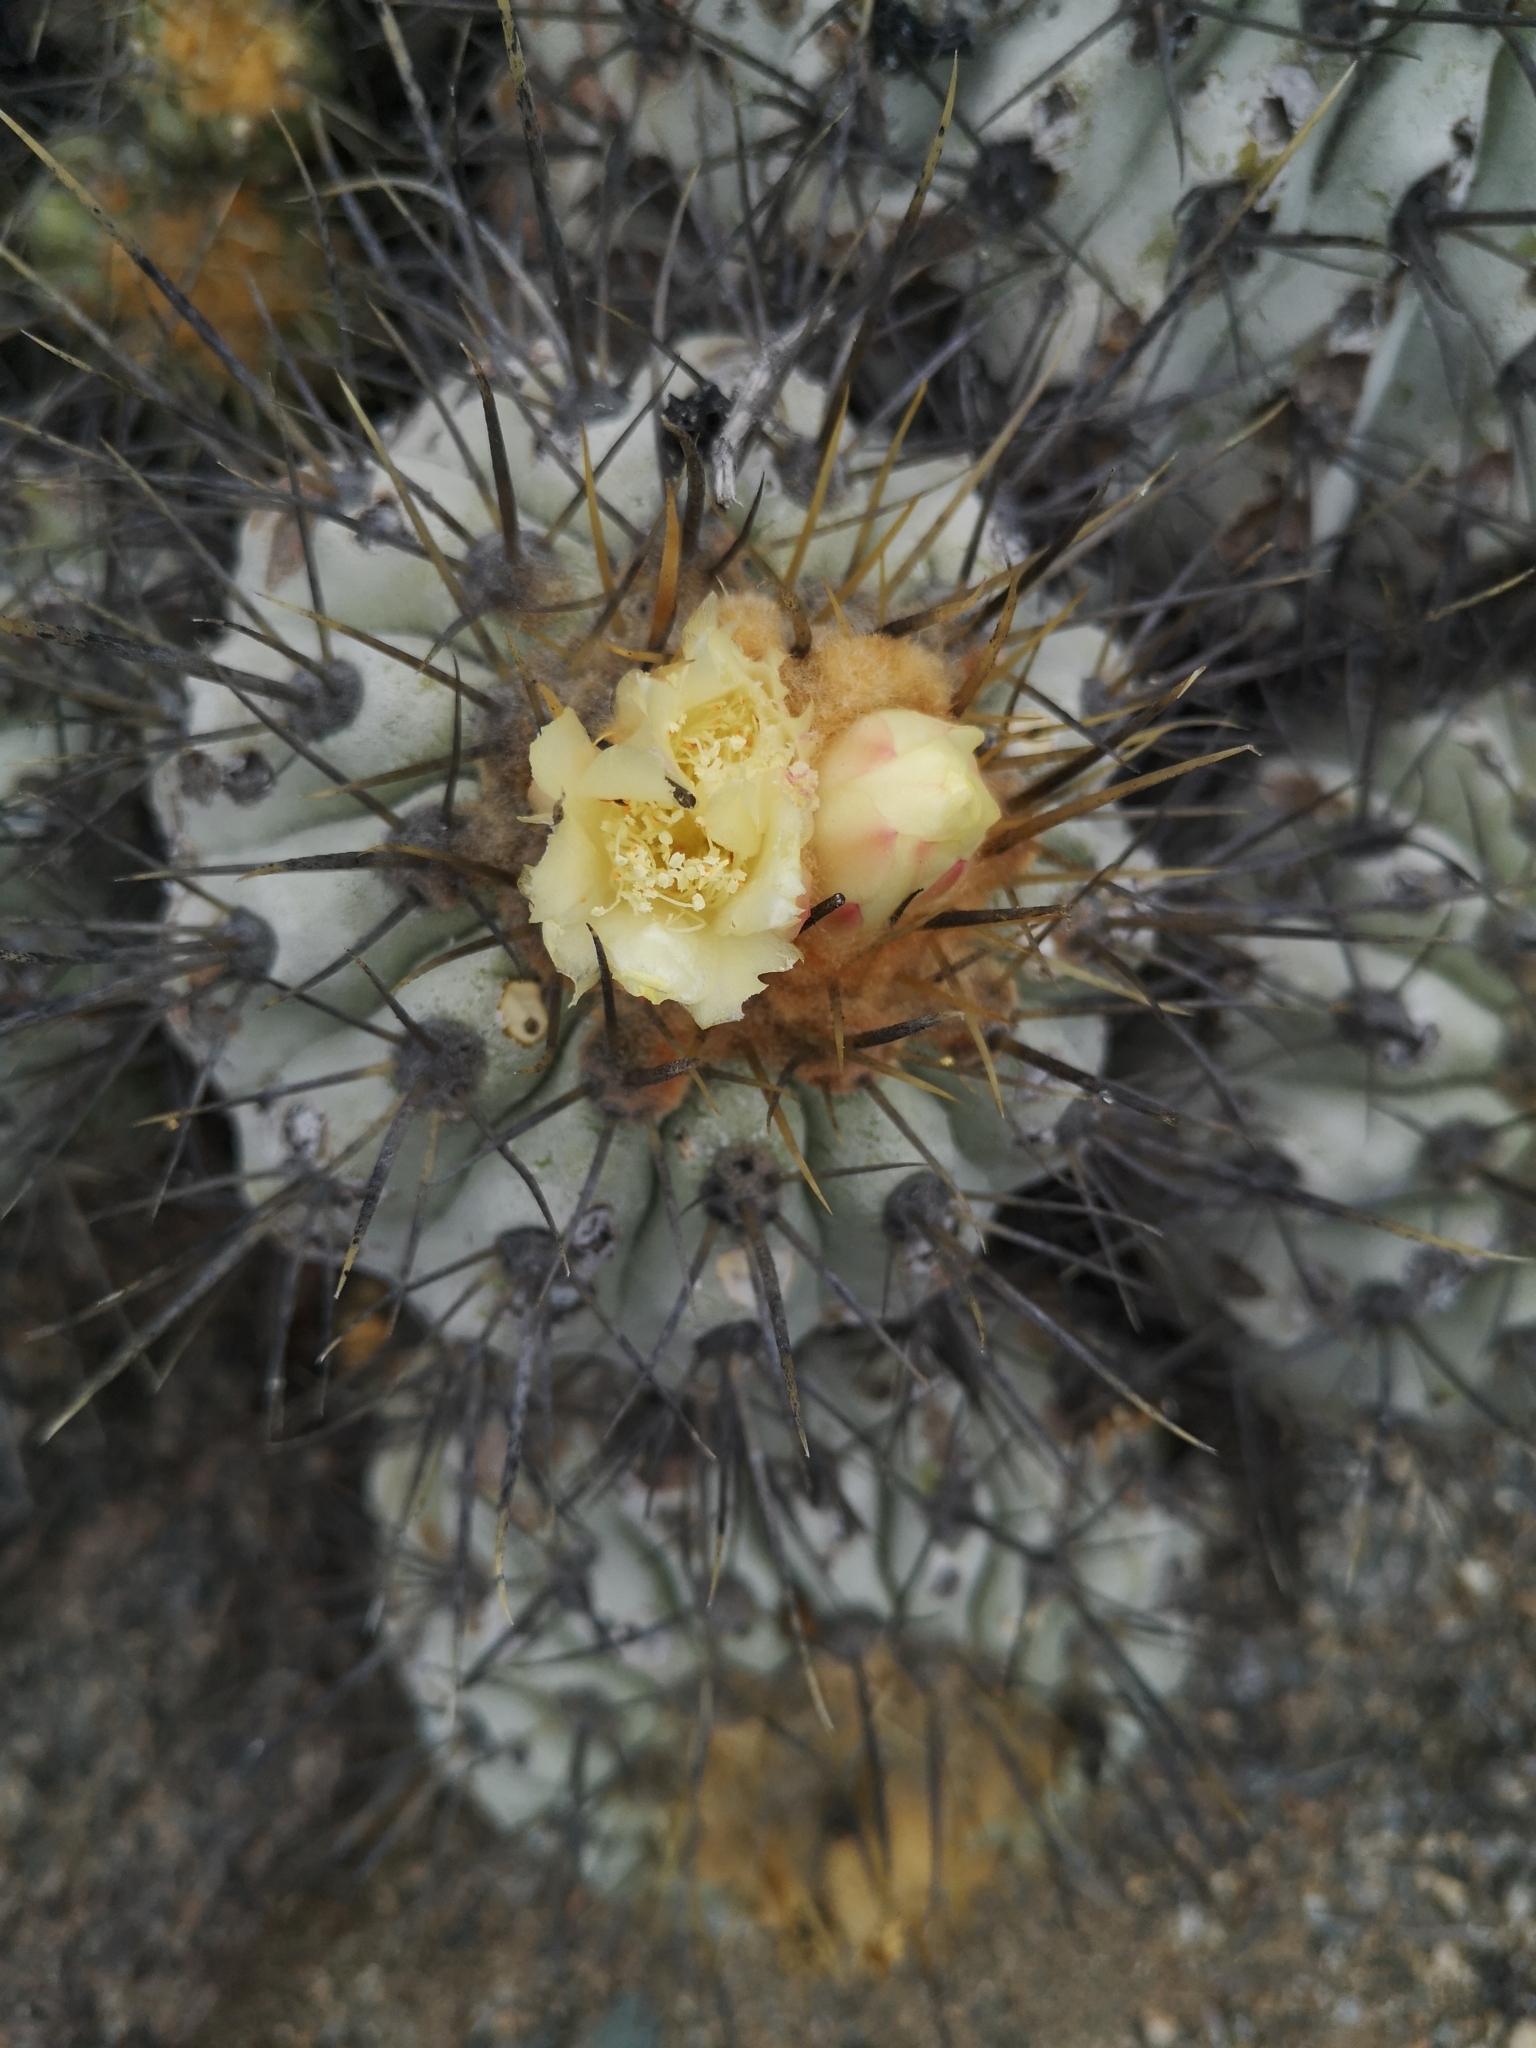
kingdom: Plantae
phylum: Tracheophyta
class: Magnoliopsida
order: Caryophyllales
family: Cactaceae
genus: Copiapoa
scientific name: Copiapoa gigantea
